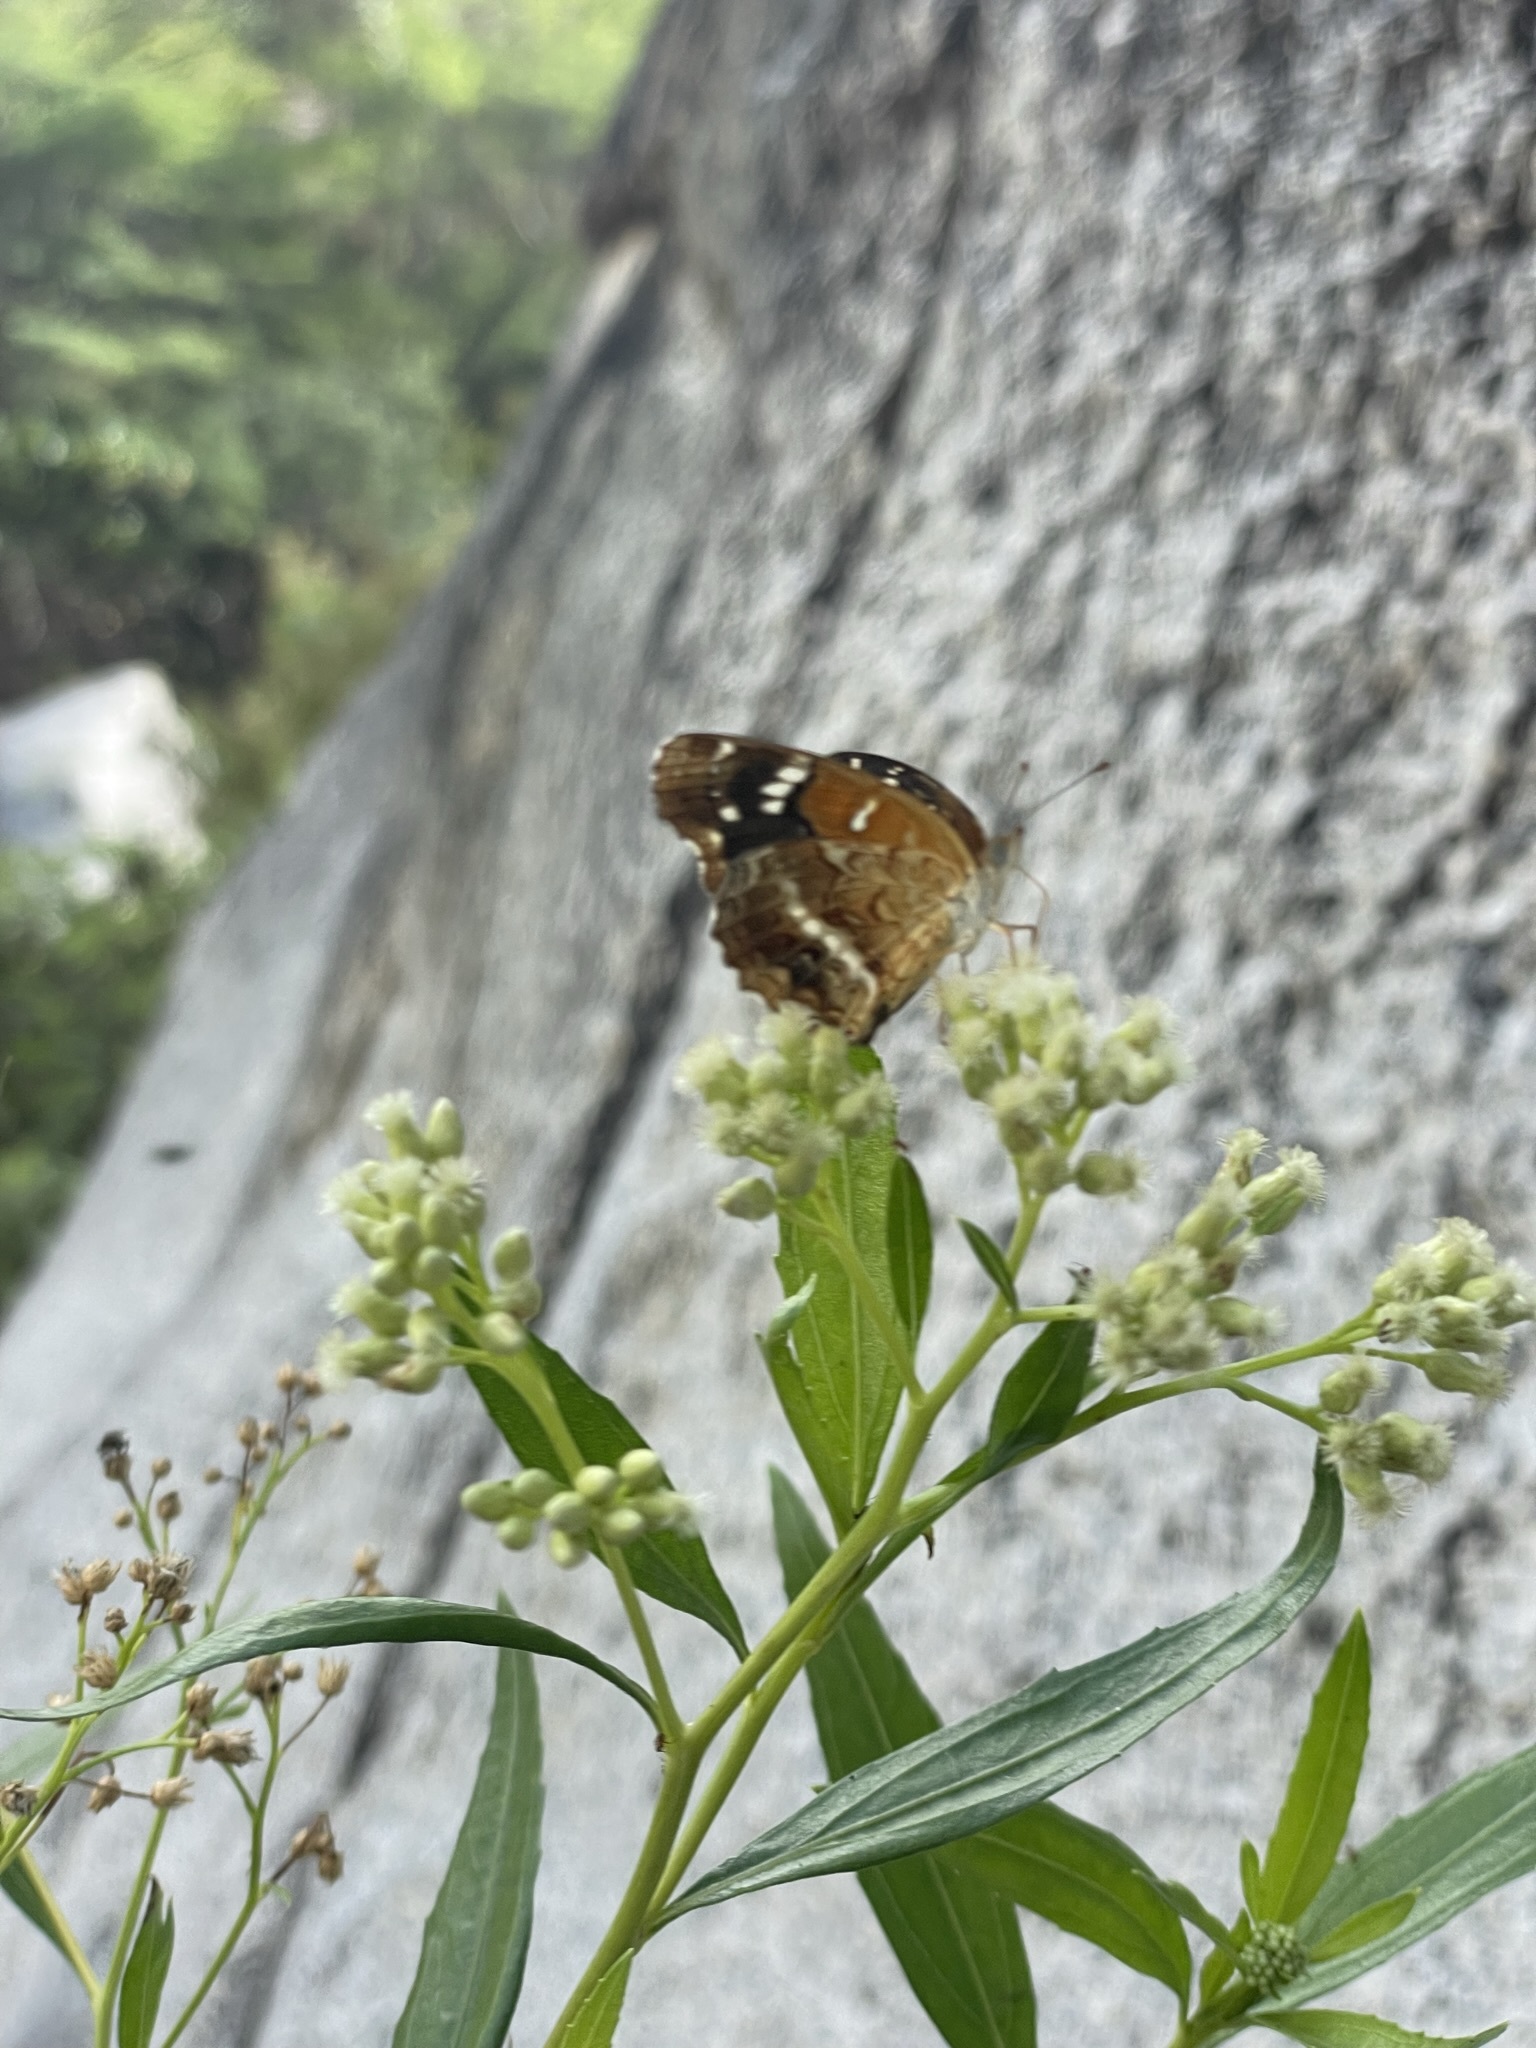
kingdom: Animalia
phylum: Arthropoda
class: Insecta
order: Lepidoptera
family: Nymphalidae
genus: Anthanassa
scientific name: Anthanassa texana
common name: Texan crescent
